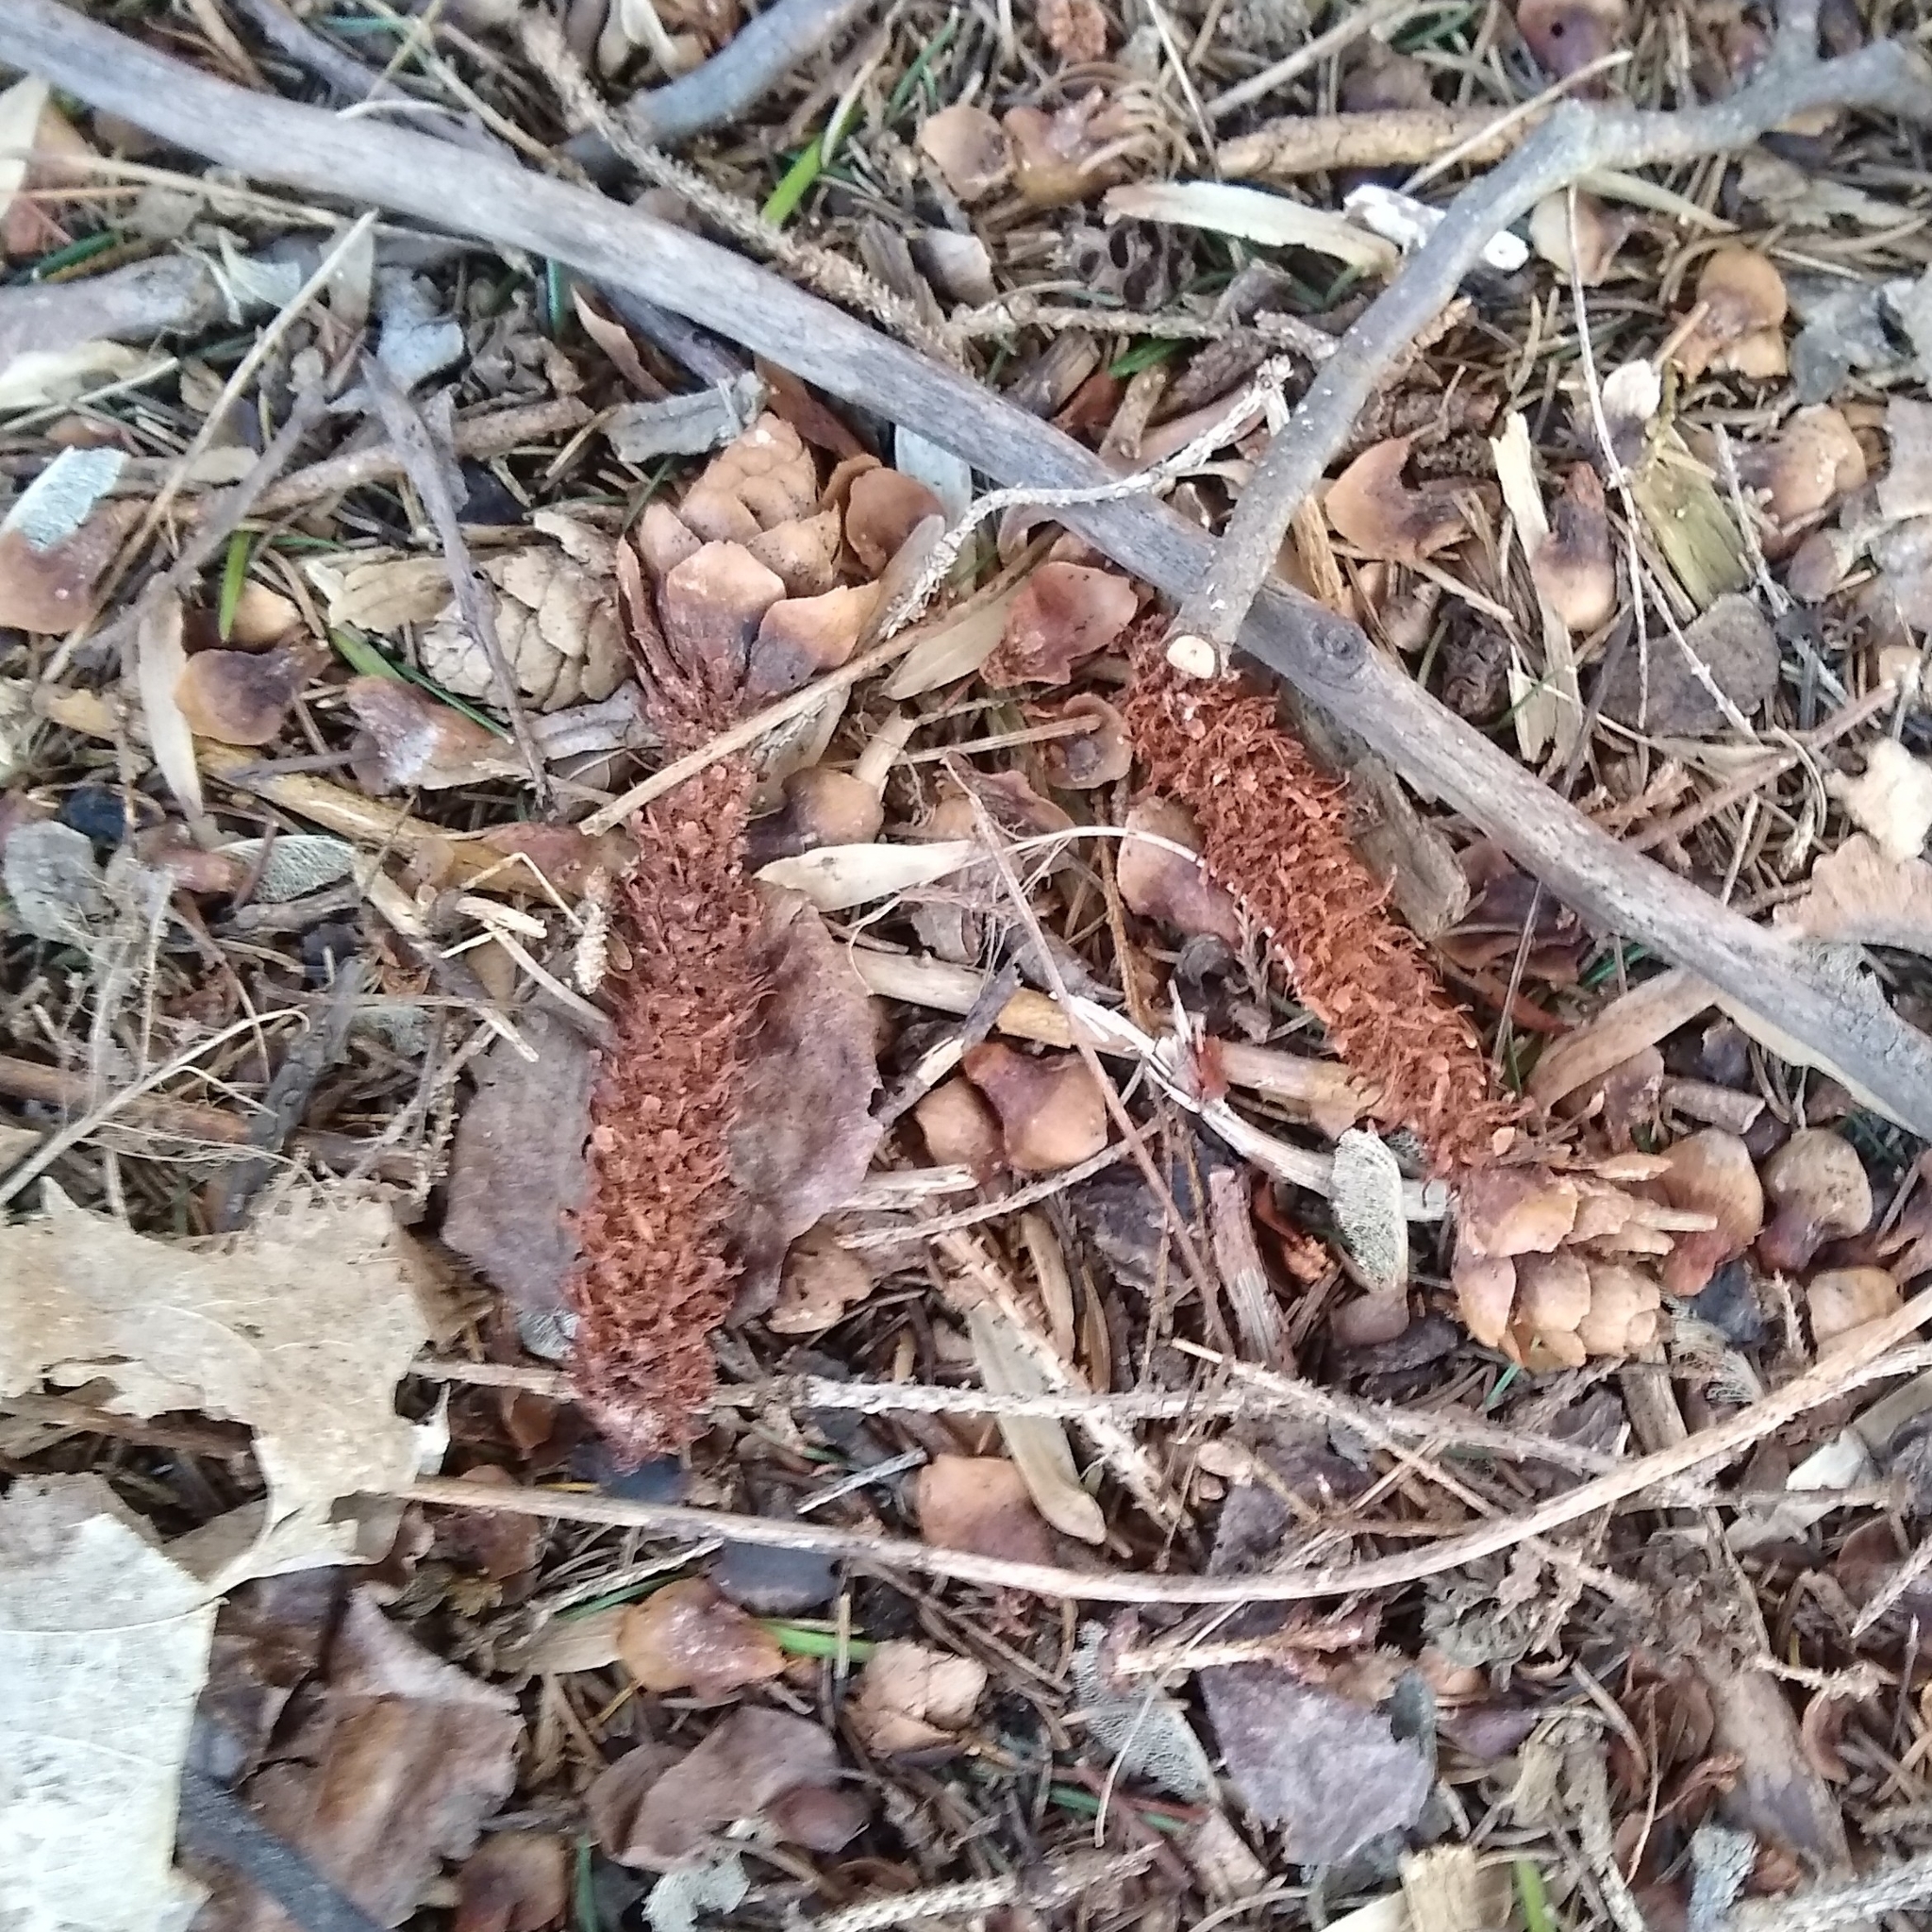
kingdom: Animalia
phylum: Chordata
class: Mammalia
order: Rodentia
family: Sciuridae
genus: Tamiasciurus
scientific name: Tamiasciurus hudsonicus
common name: Red squirrel
